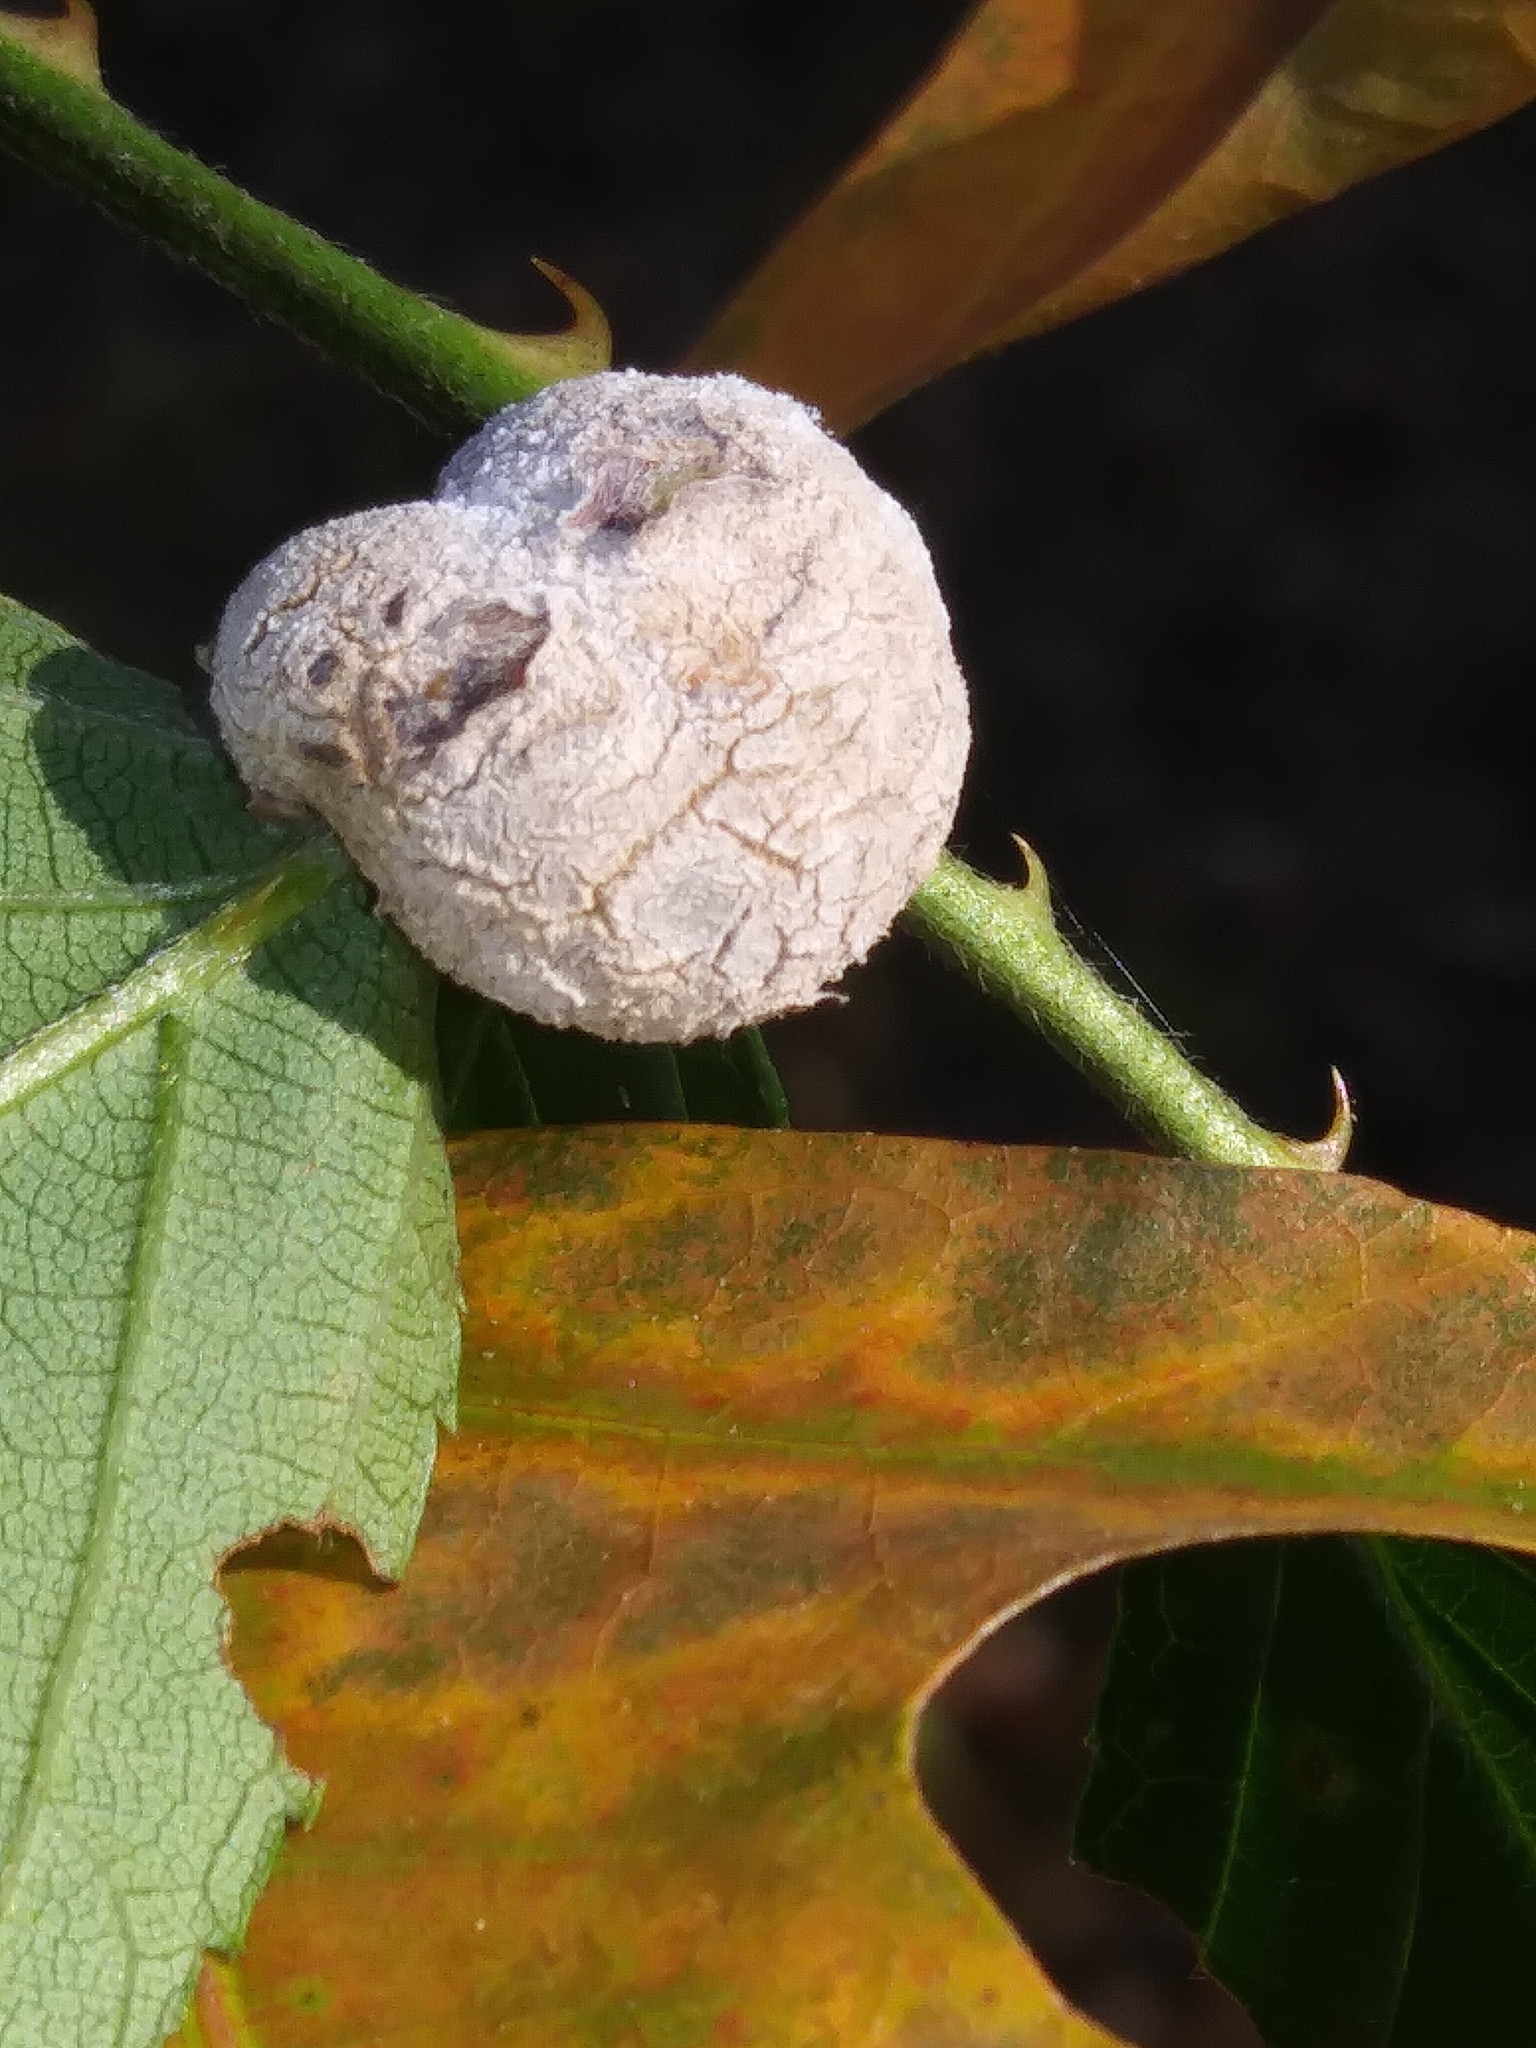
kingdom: Animalia
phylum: Arthropoda
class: Insecta
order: Diptera
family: Cecidomyiidae
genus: Neolasioptera
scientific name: Neolasioptera farinosa
